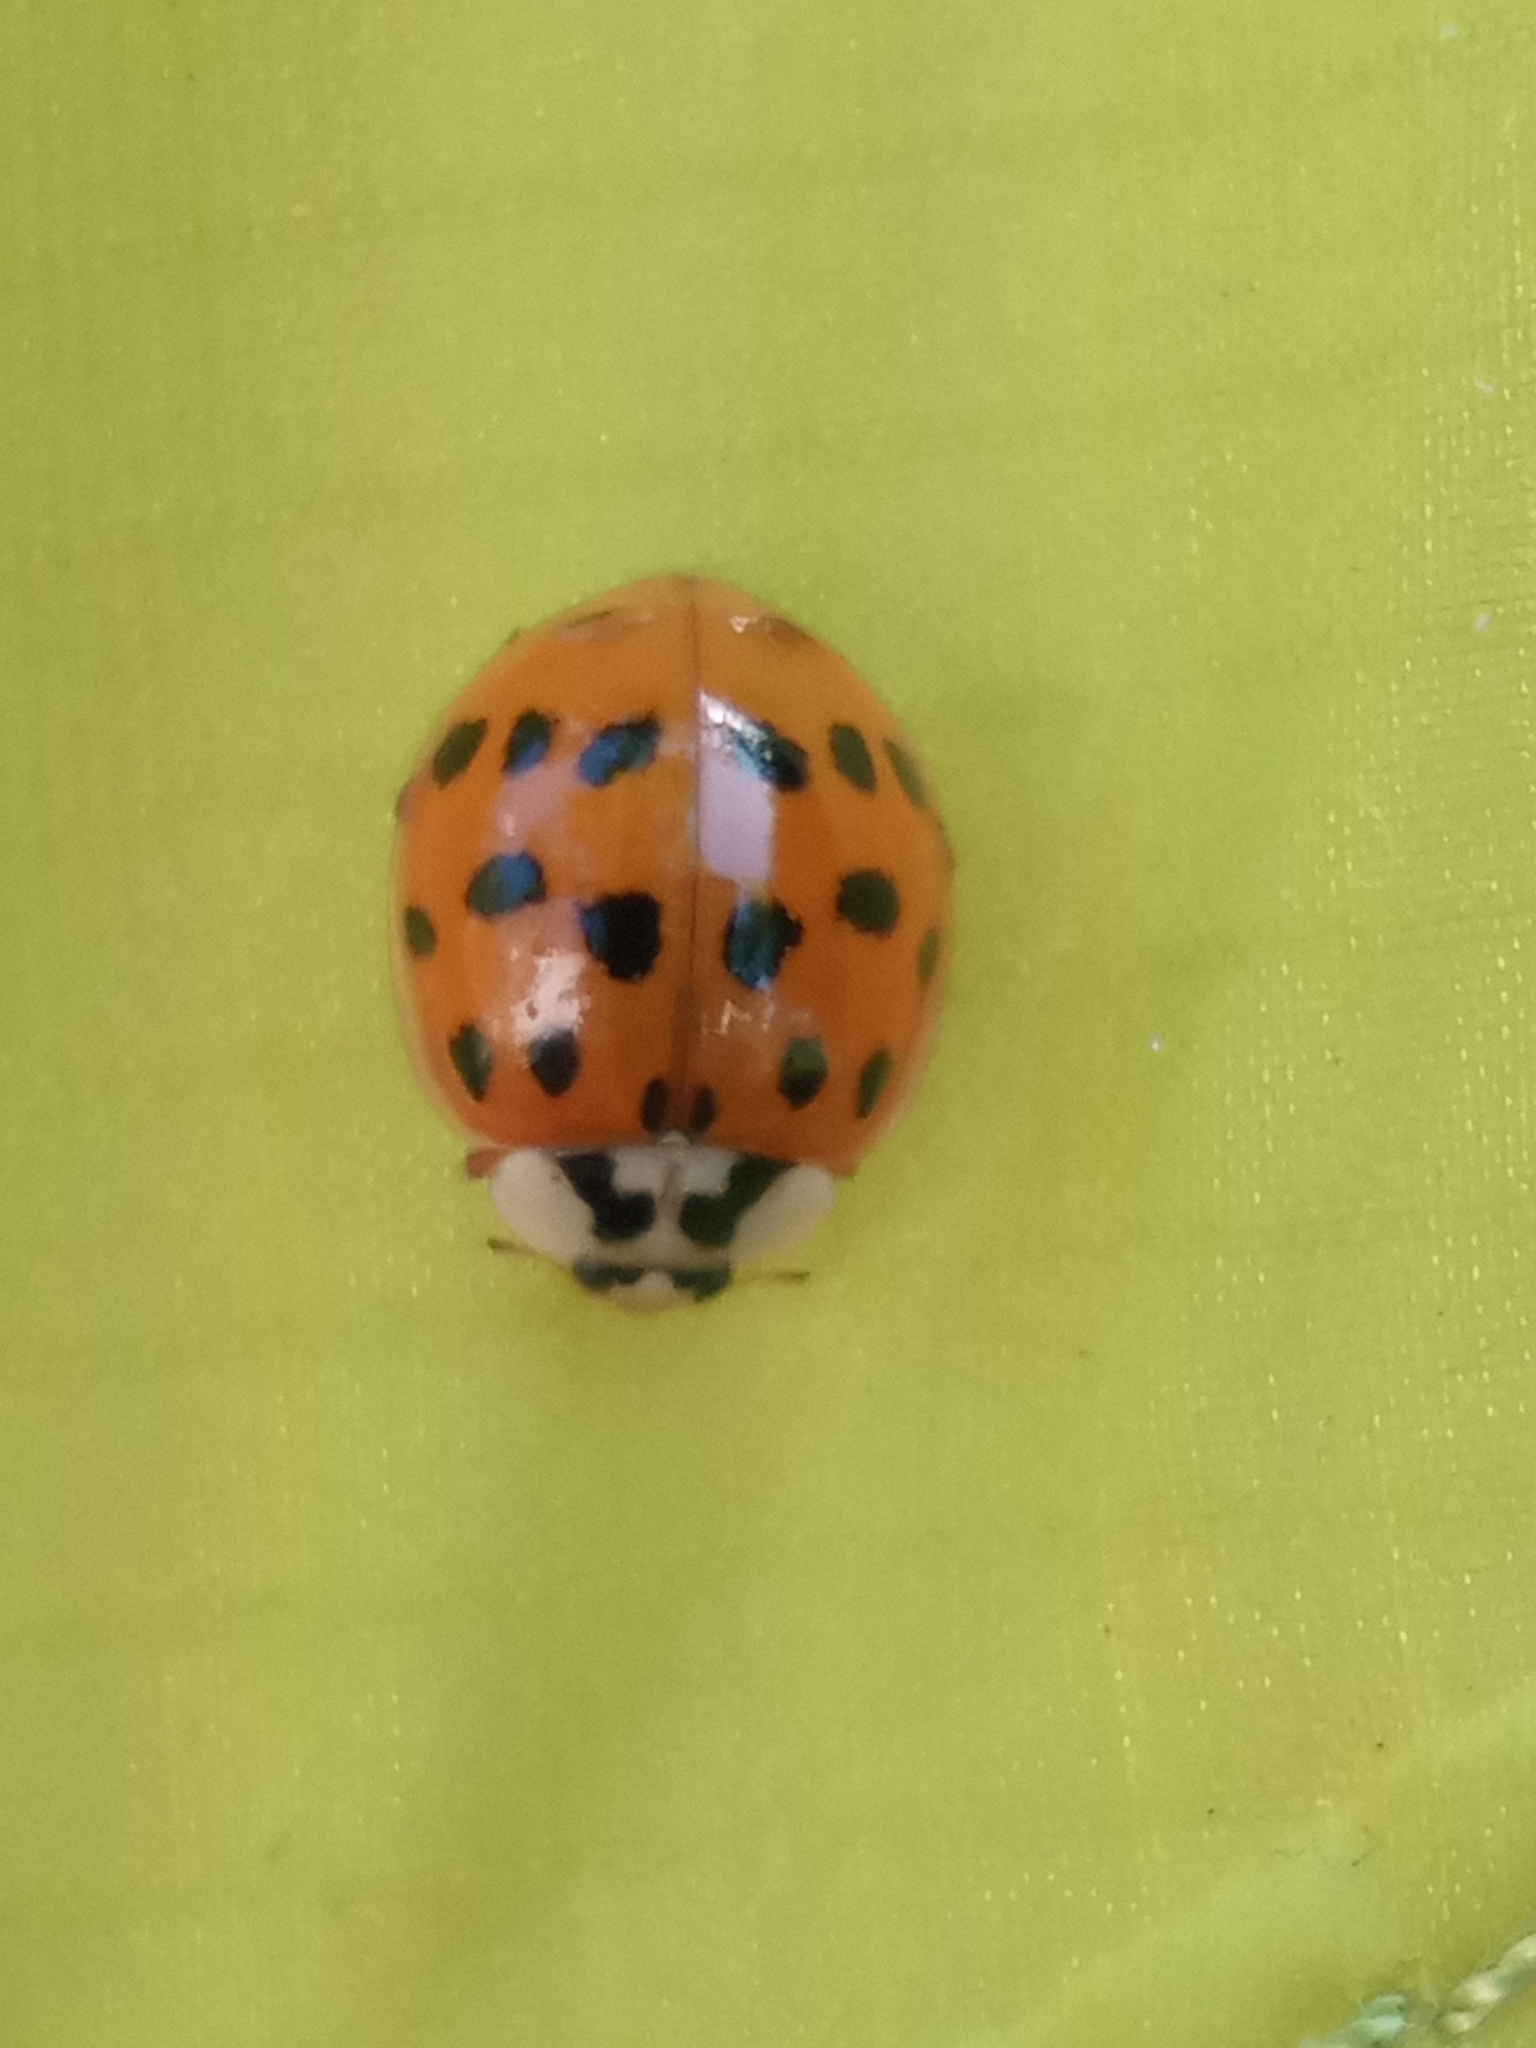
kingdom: Animalia
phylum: Arthropoda
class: Insecta
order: Coleoptera
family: Coccinellidae
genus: Harmonia
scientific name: Harmonia axyridis
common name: Harlequin ladybird
